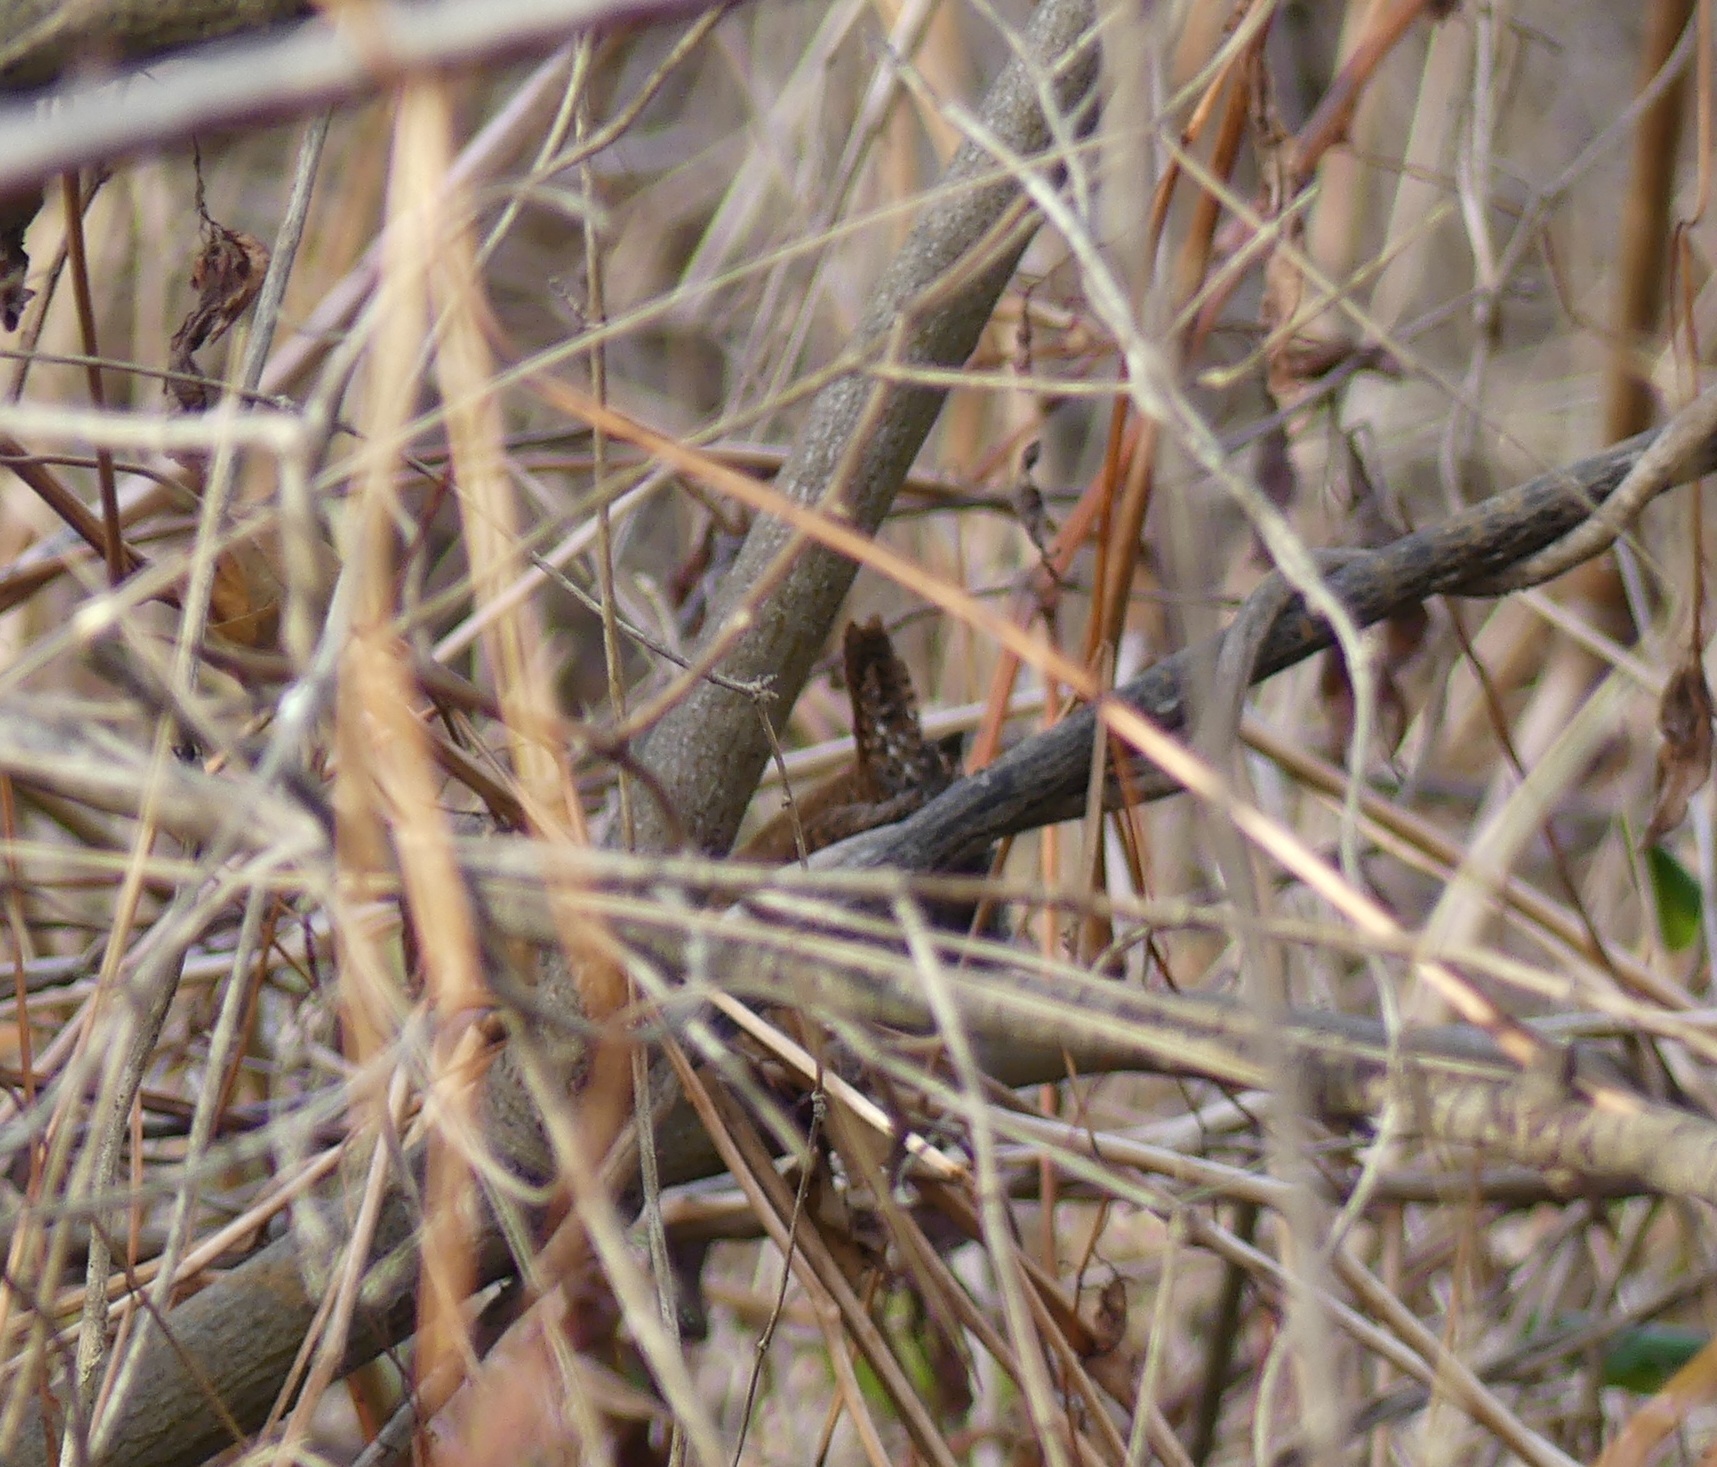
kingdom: Animalia
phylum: Chordata
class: Aves
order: Passeriformes
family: Troglodytidae
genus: Troglodytes
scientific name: Troglodytes hiemalis
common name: Winter wren
